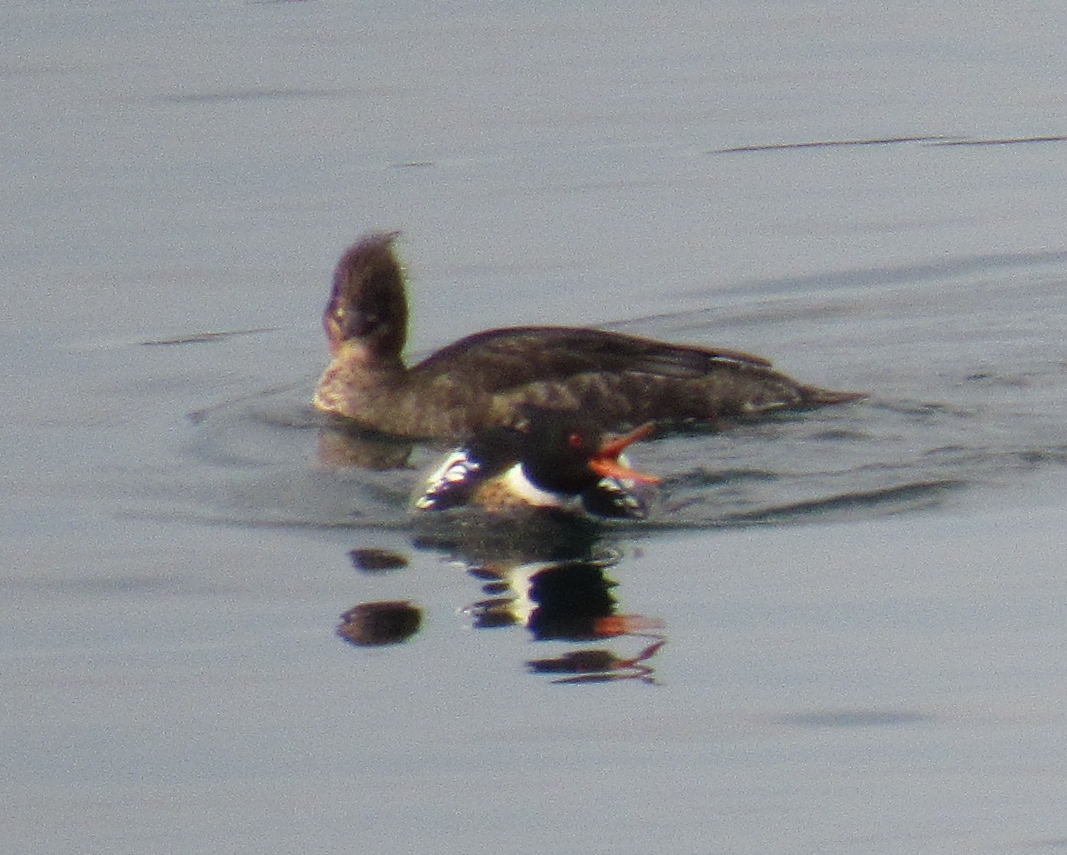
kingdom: Animalia
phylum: Chordata
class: Aves
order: Anseriformes
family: Anatidae
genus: Mergus
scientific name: Mergus serrator
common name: Red-breasted merganser
